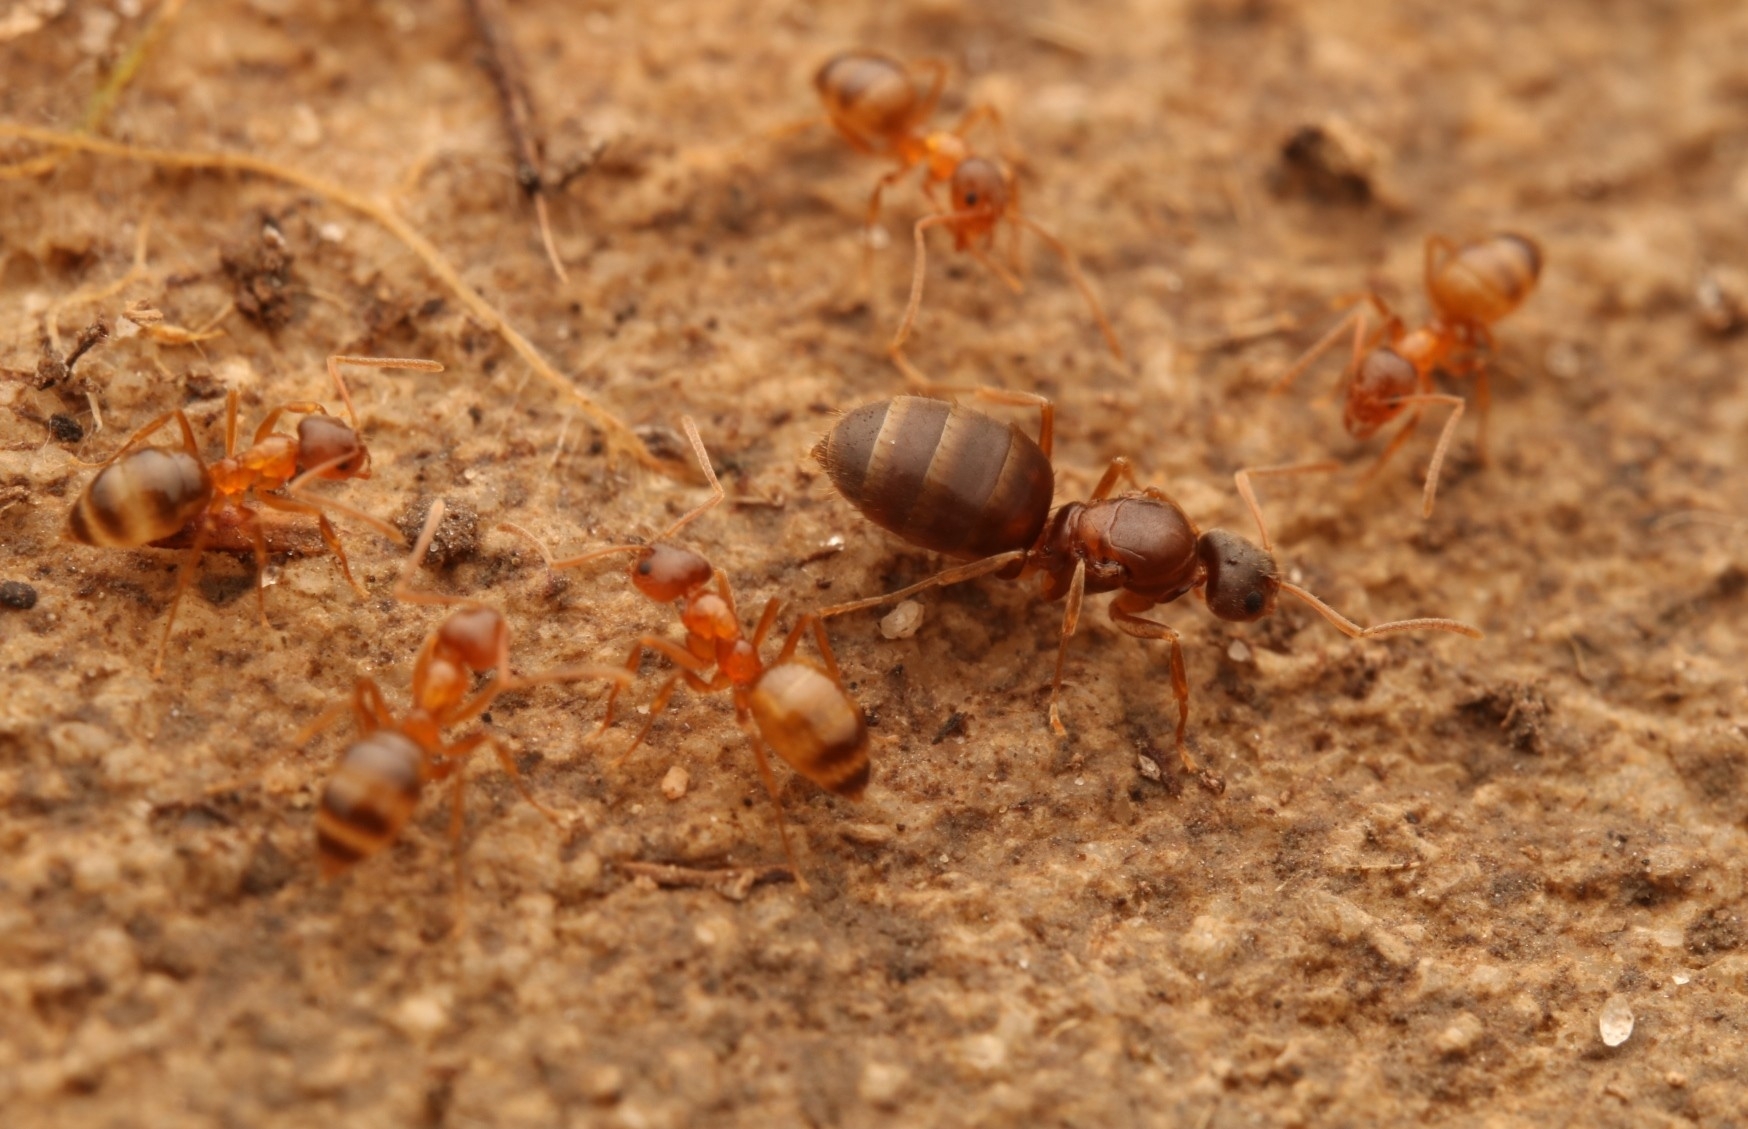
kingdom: Animalia
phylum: Arthropoda
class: Insecta
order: Hymenoptera
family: Formicidae
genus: Paratrechina
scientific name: Paratrechina flavipes
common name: Eastern asian formicine ant
